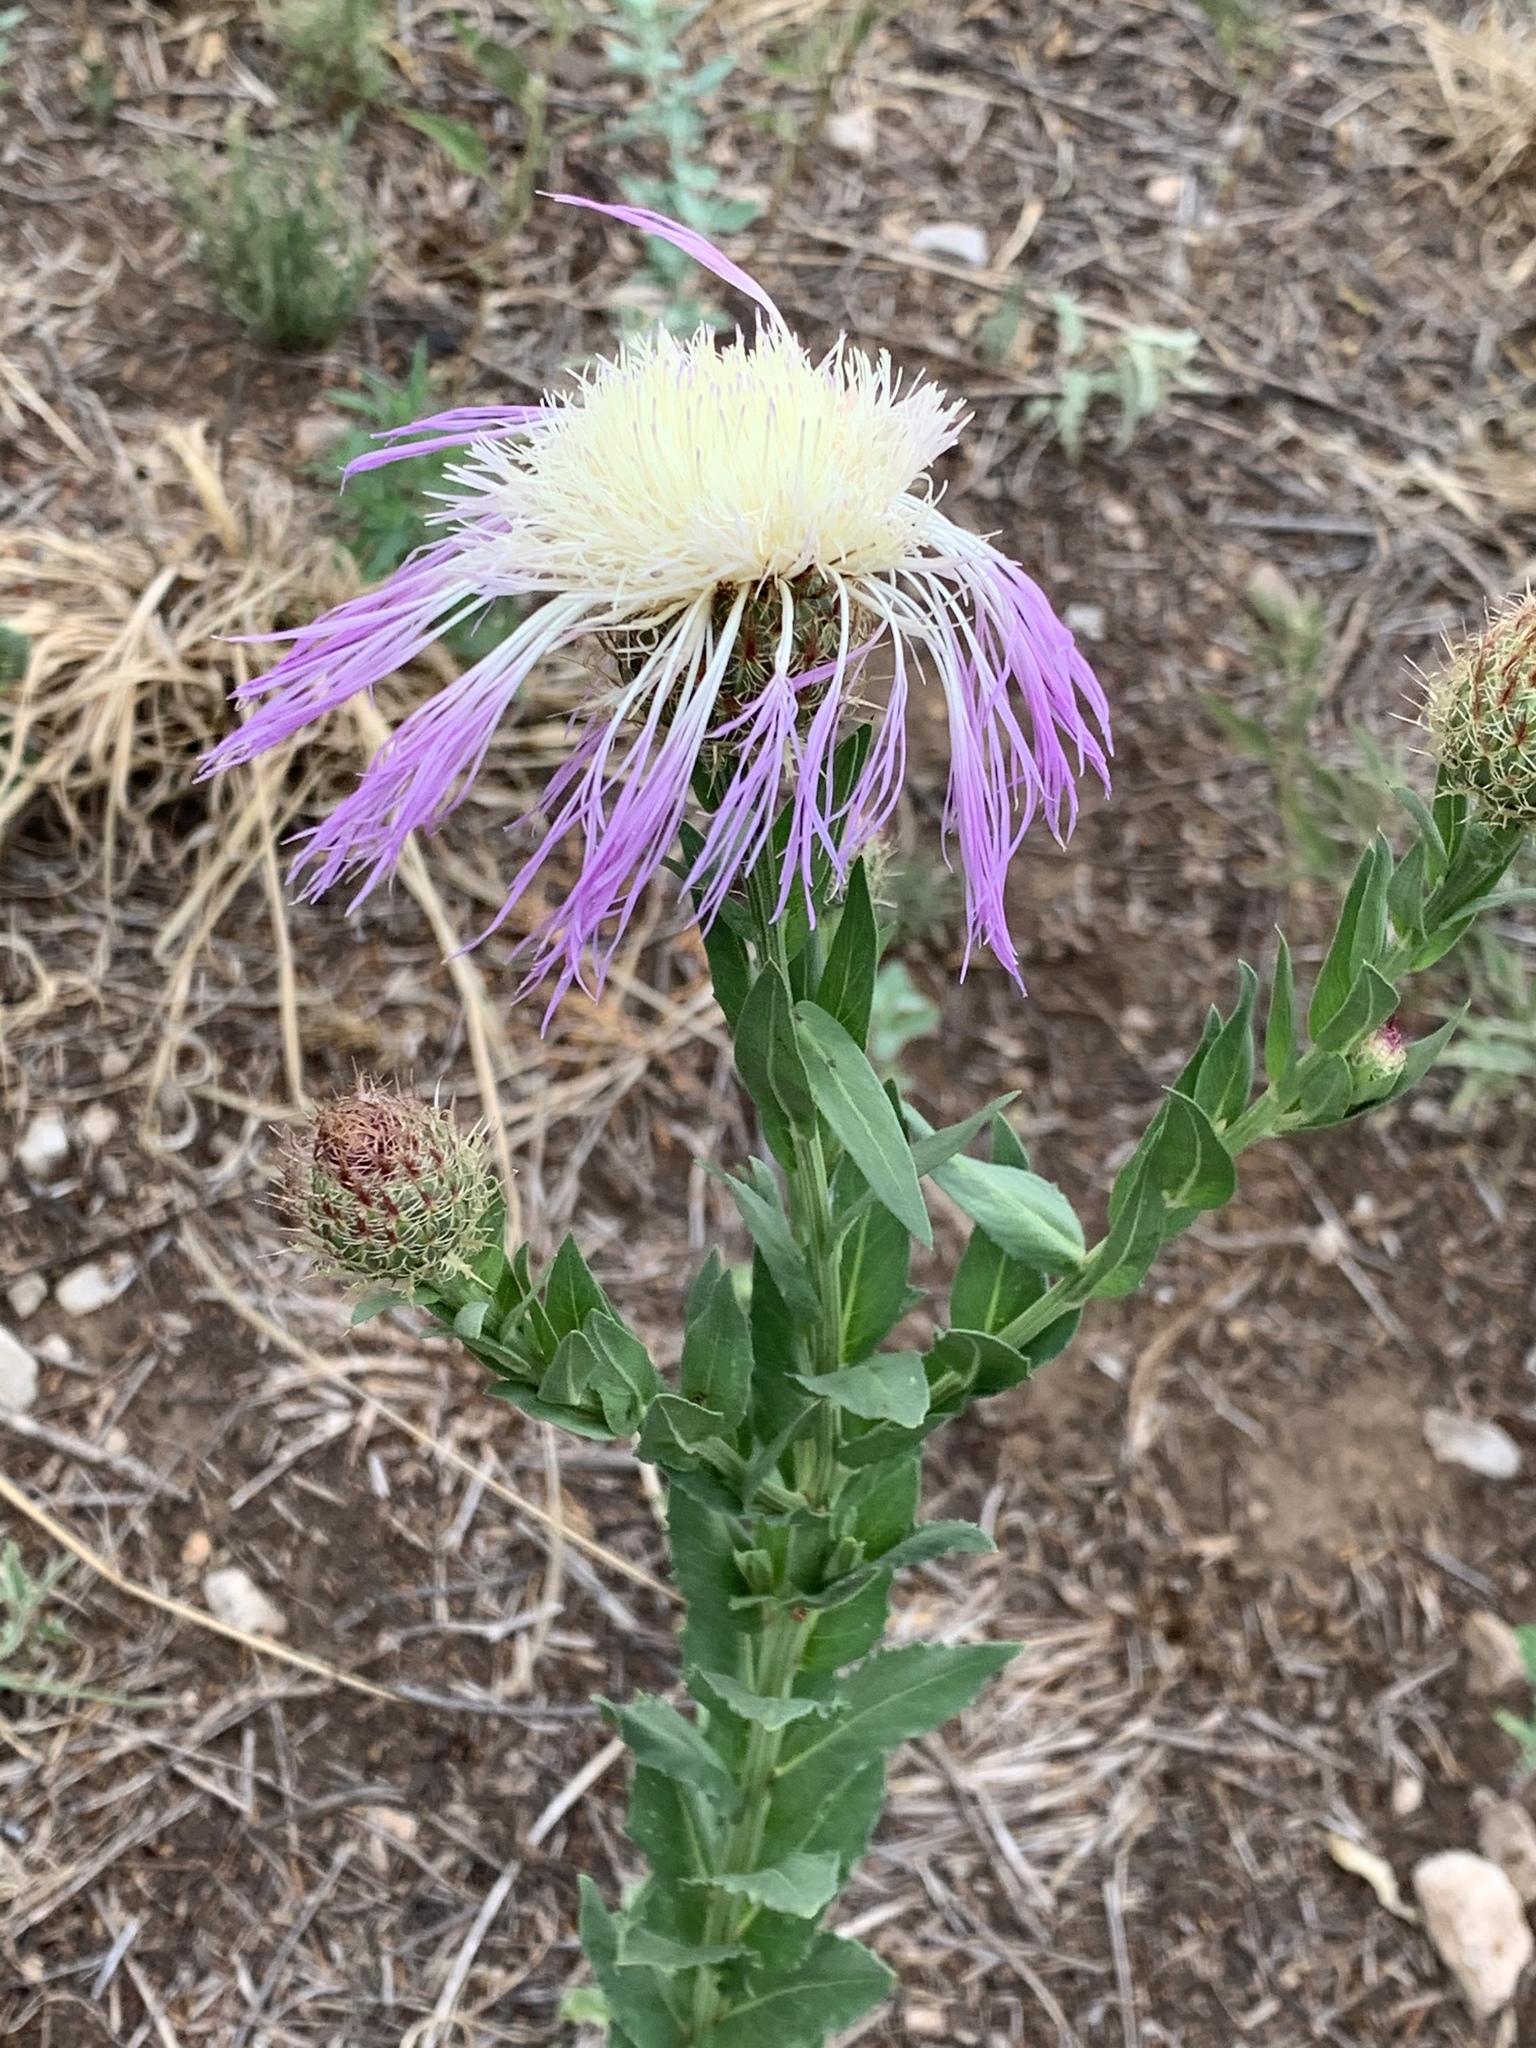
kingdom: Plantae
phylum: Tracheophyta
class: Magnoliopsida
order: Asterales
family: Asteraceae
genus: Plectocephalus
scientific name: Plectocephalus americanus
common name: American basket-flower
